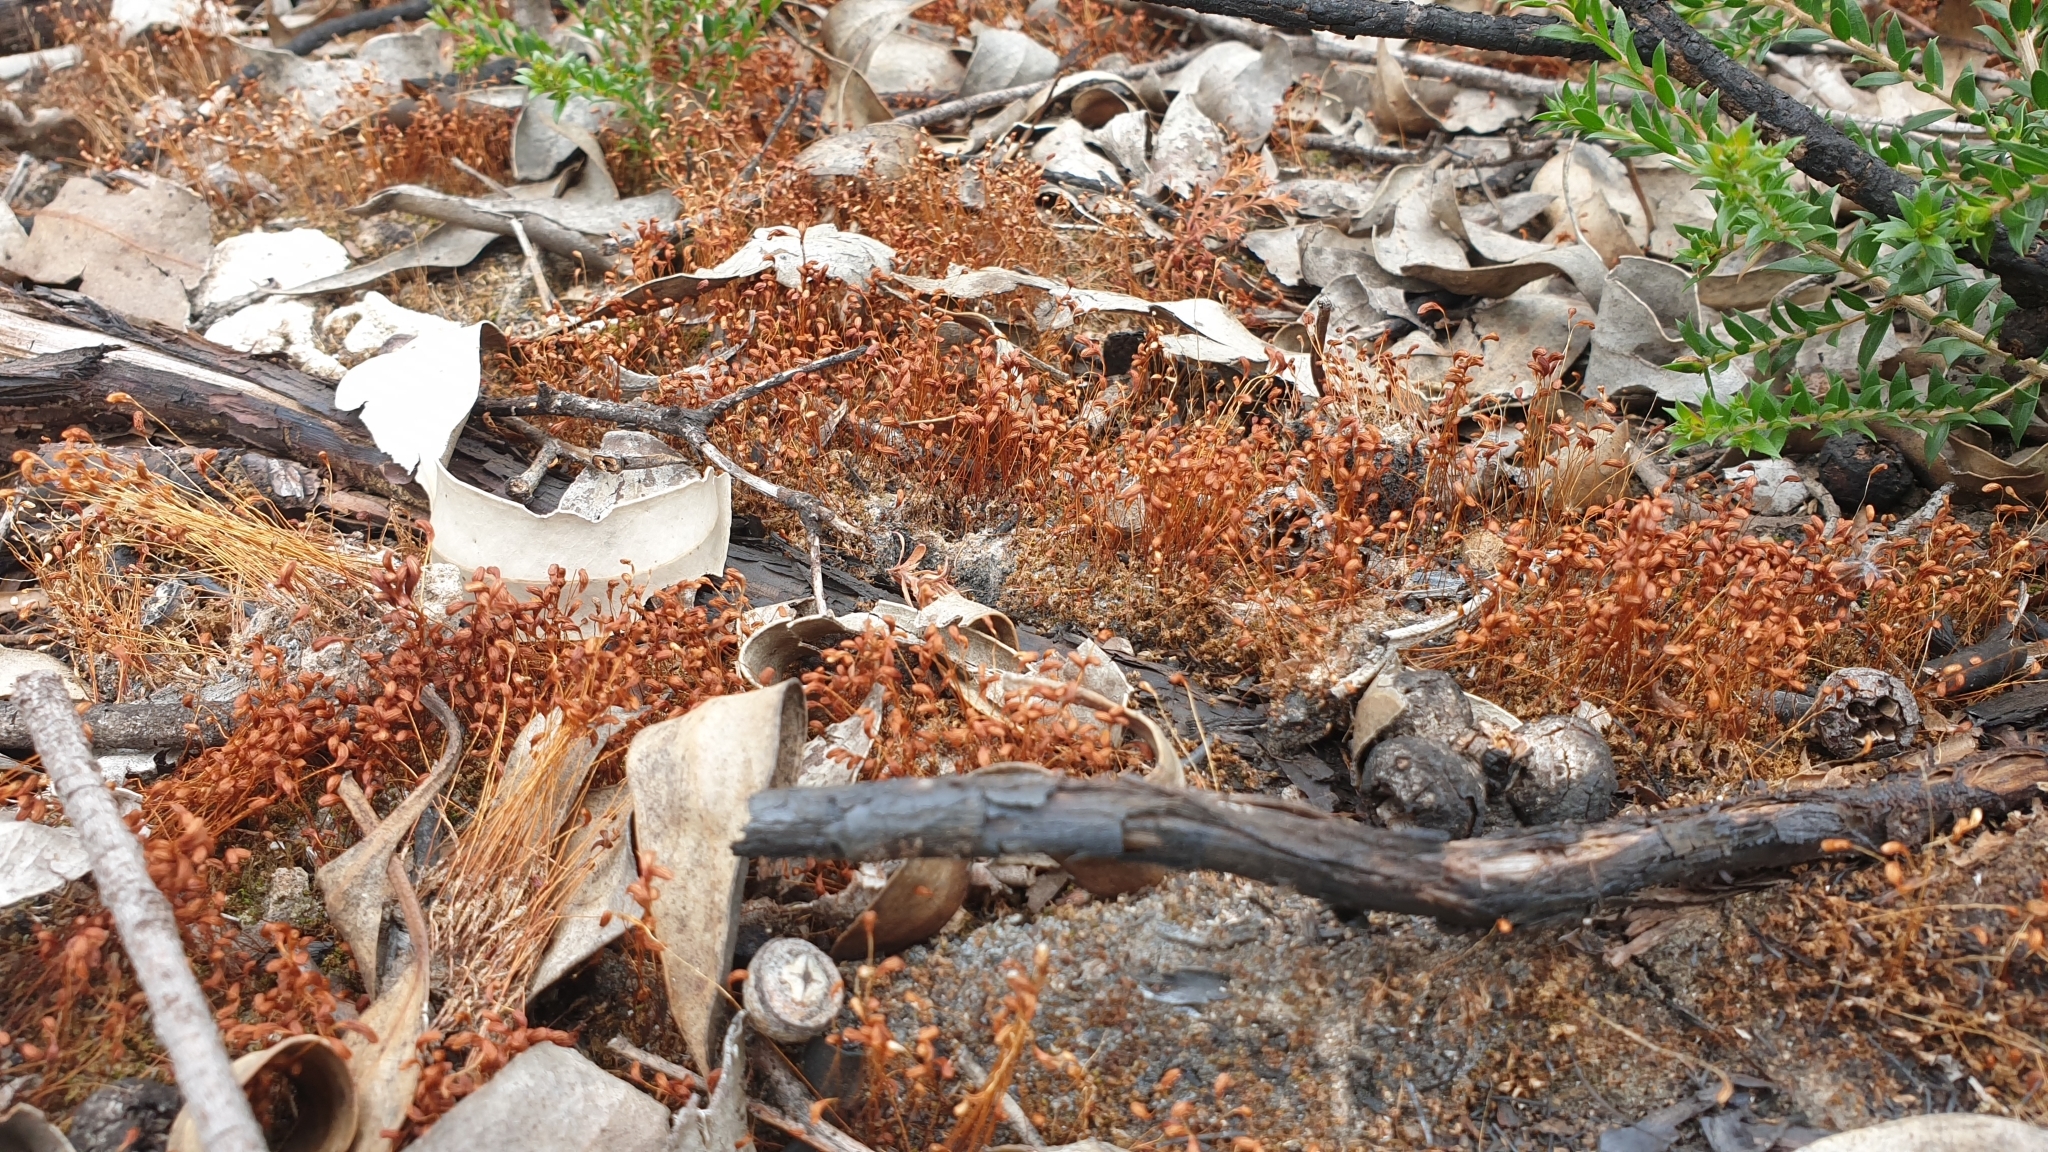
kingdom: Plantae
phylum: Bryophyta
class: Bryopsida
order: Funariales
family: Funariaceae
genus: Funaria
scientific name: Funaria hygrometrica
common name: Common cord moss
